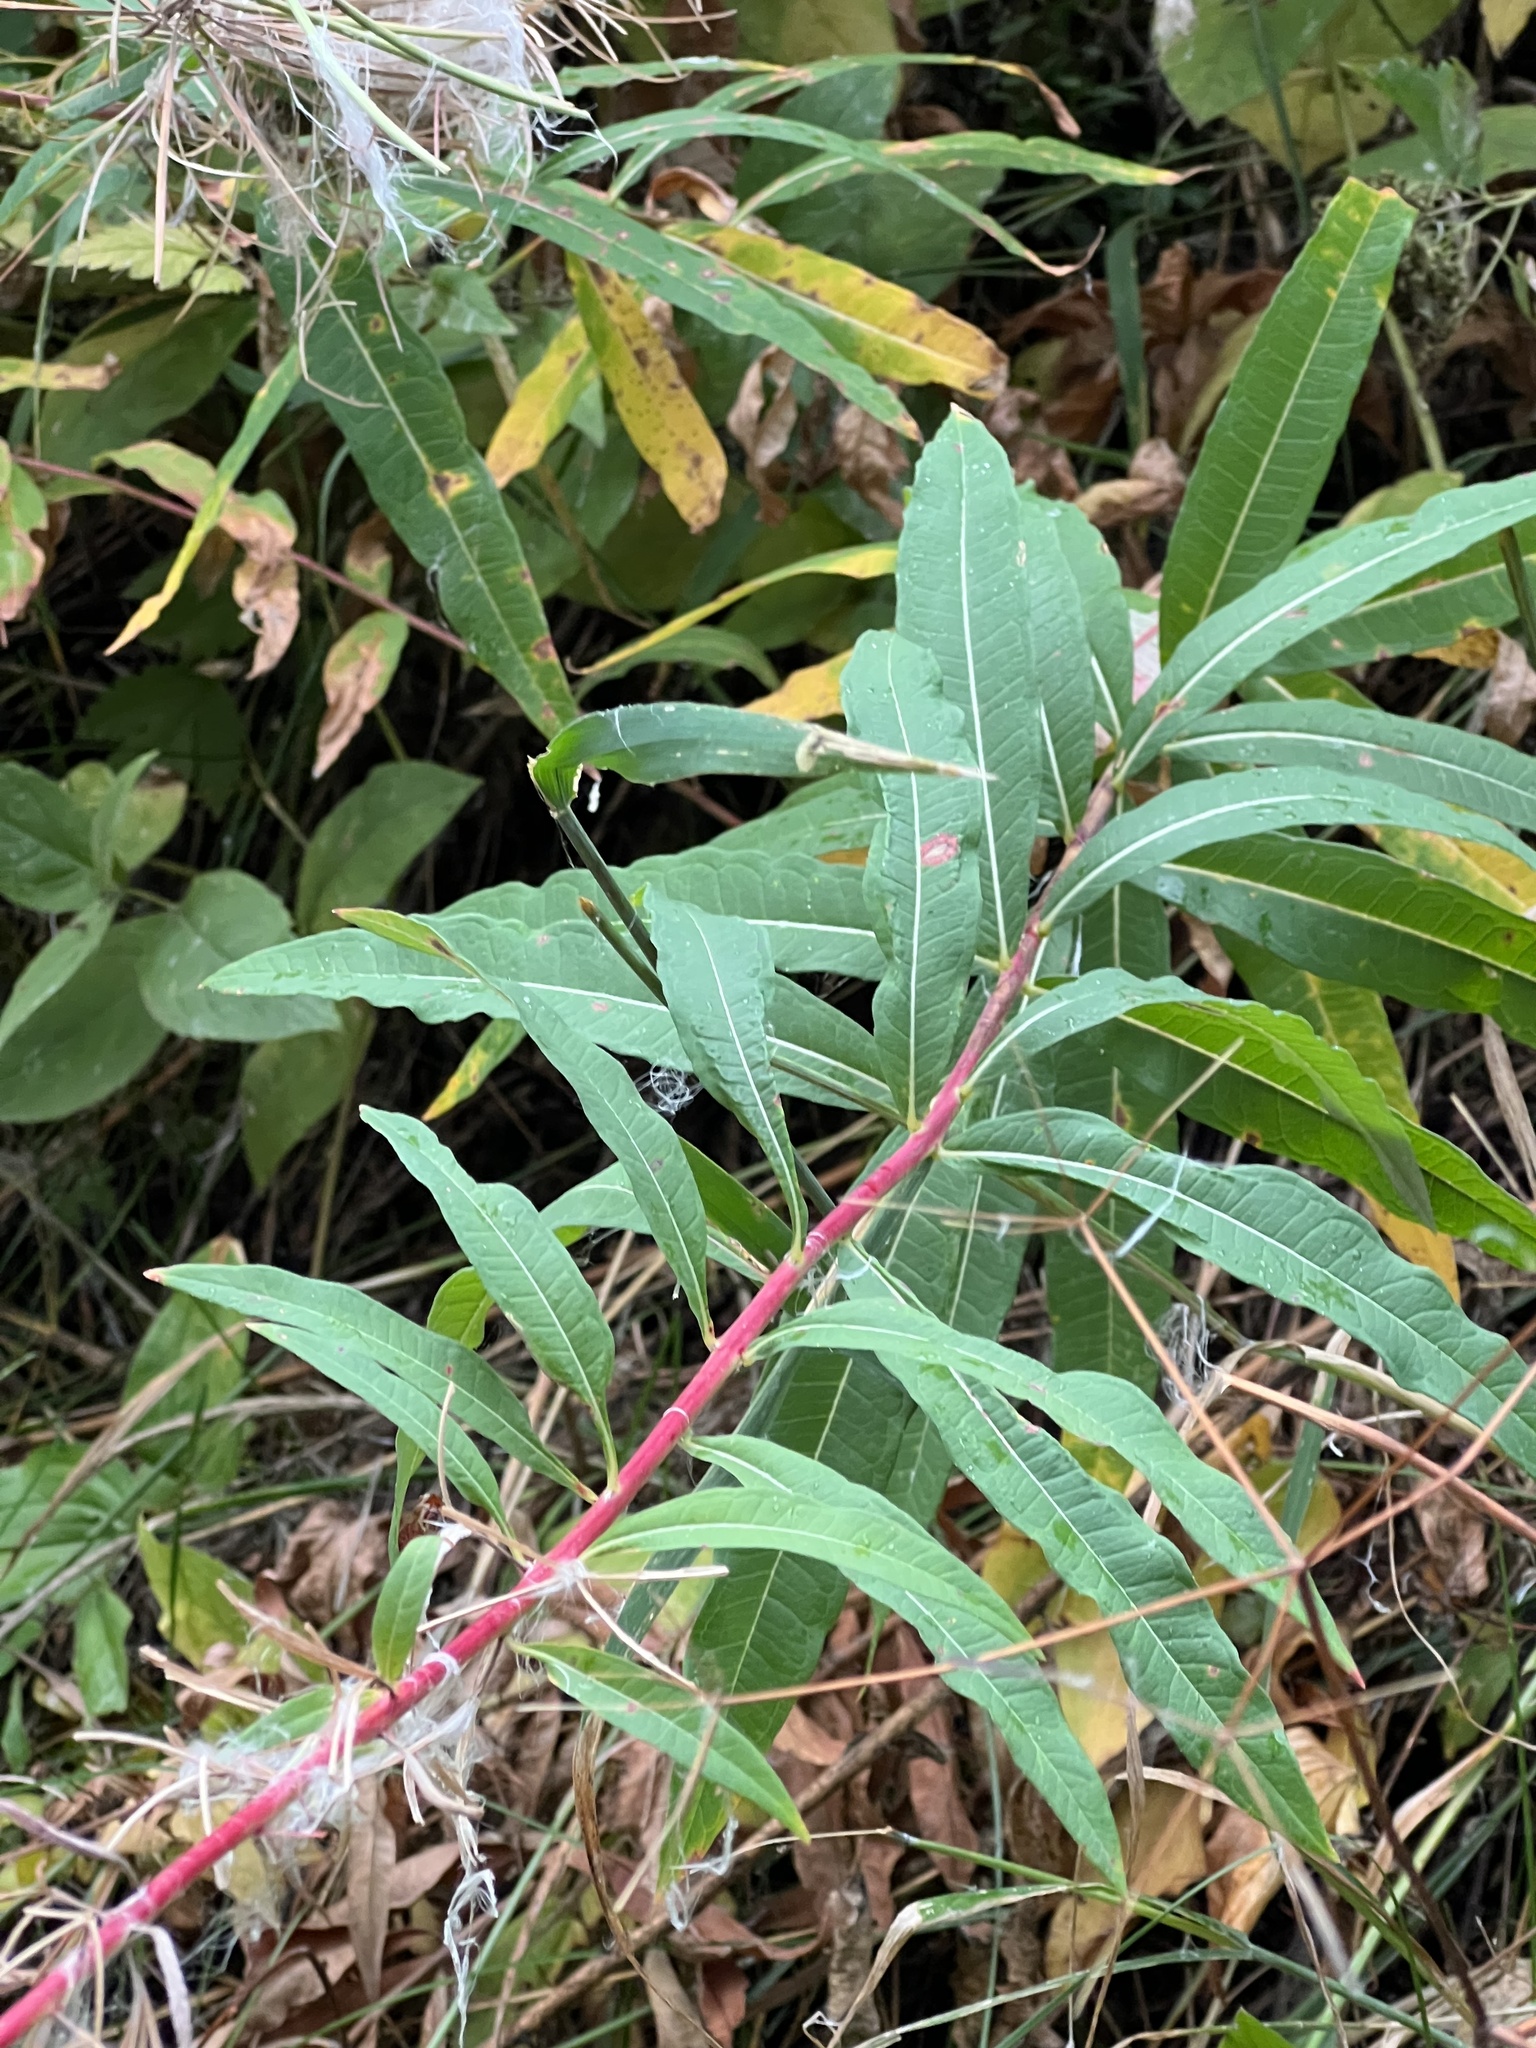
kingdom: Plantae
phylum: Tracheophyta
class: Magnoliopsida
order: Myrtales
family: Onagraceae
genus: Chamaenerion
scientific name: Chamaenerion angustifolium
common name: Fireweed
